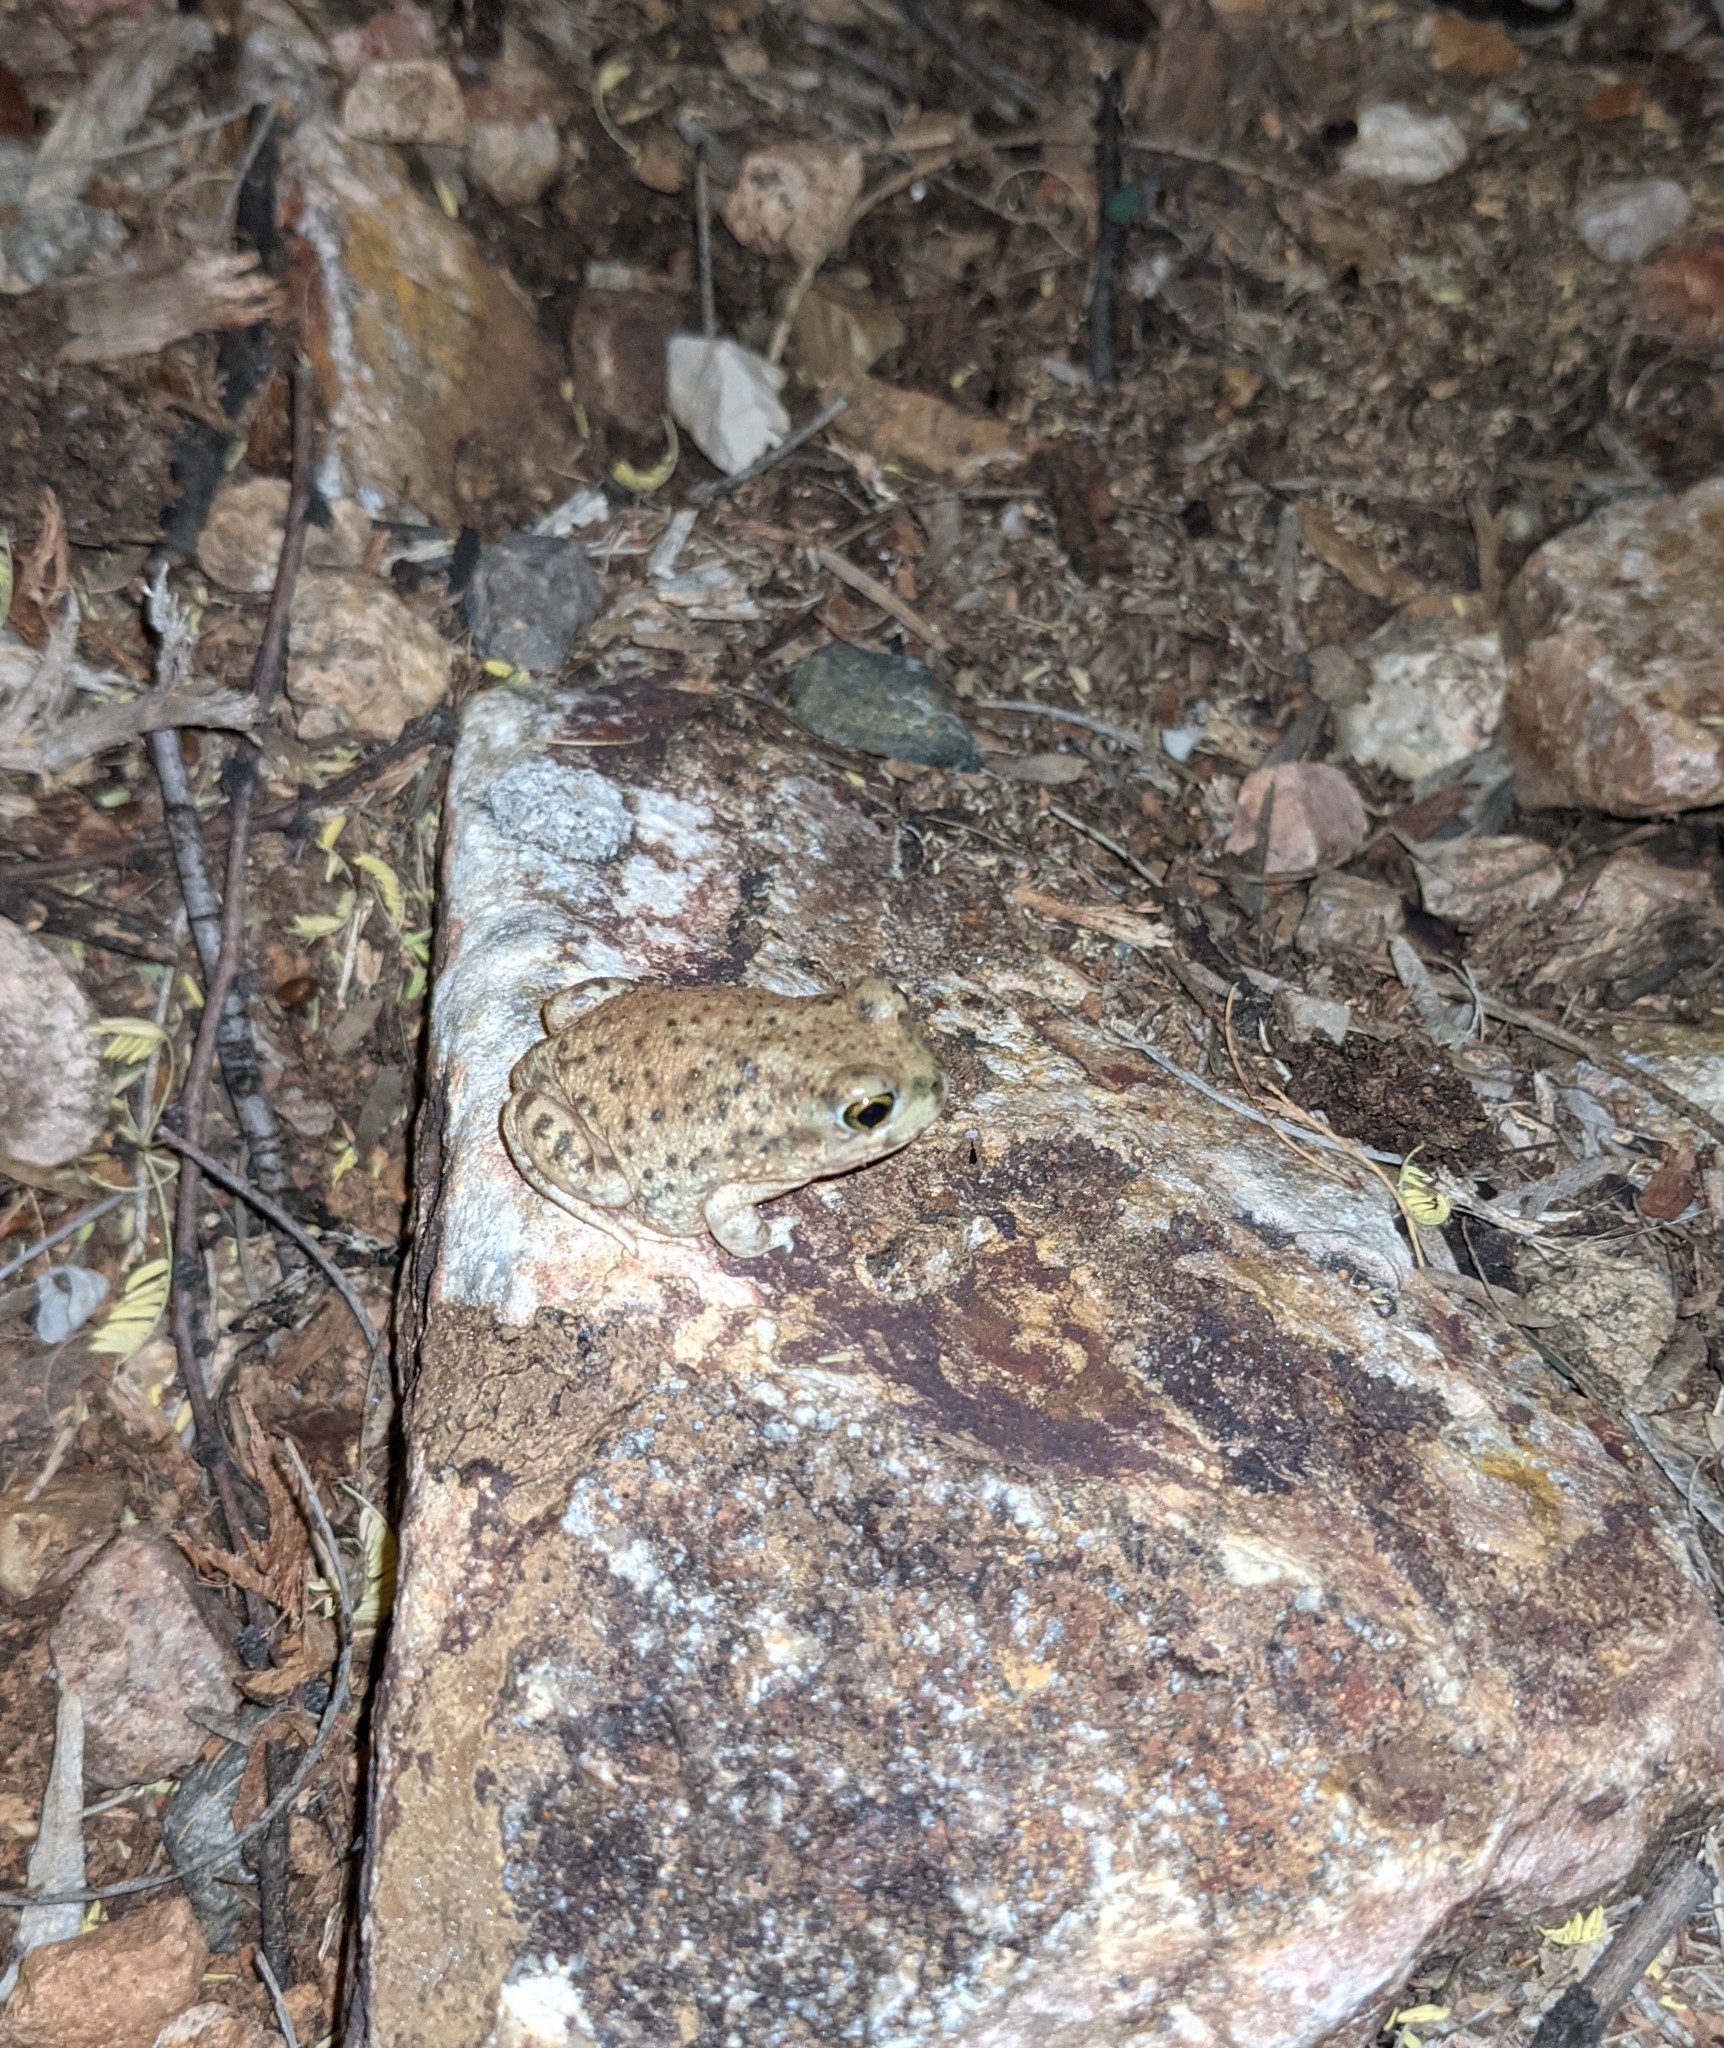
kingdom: Animalia
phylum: Chordata
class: Amphibia
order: Anura
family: Scaphiopodidae
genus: Spea
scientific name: Spea multiplicata
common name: Mexican spadefoot
